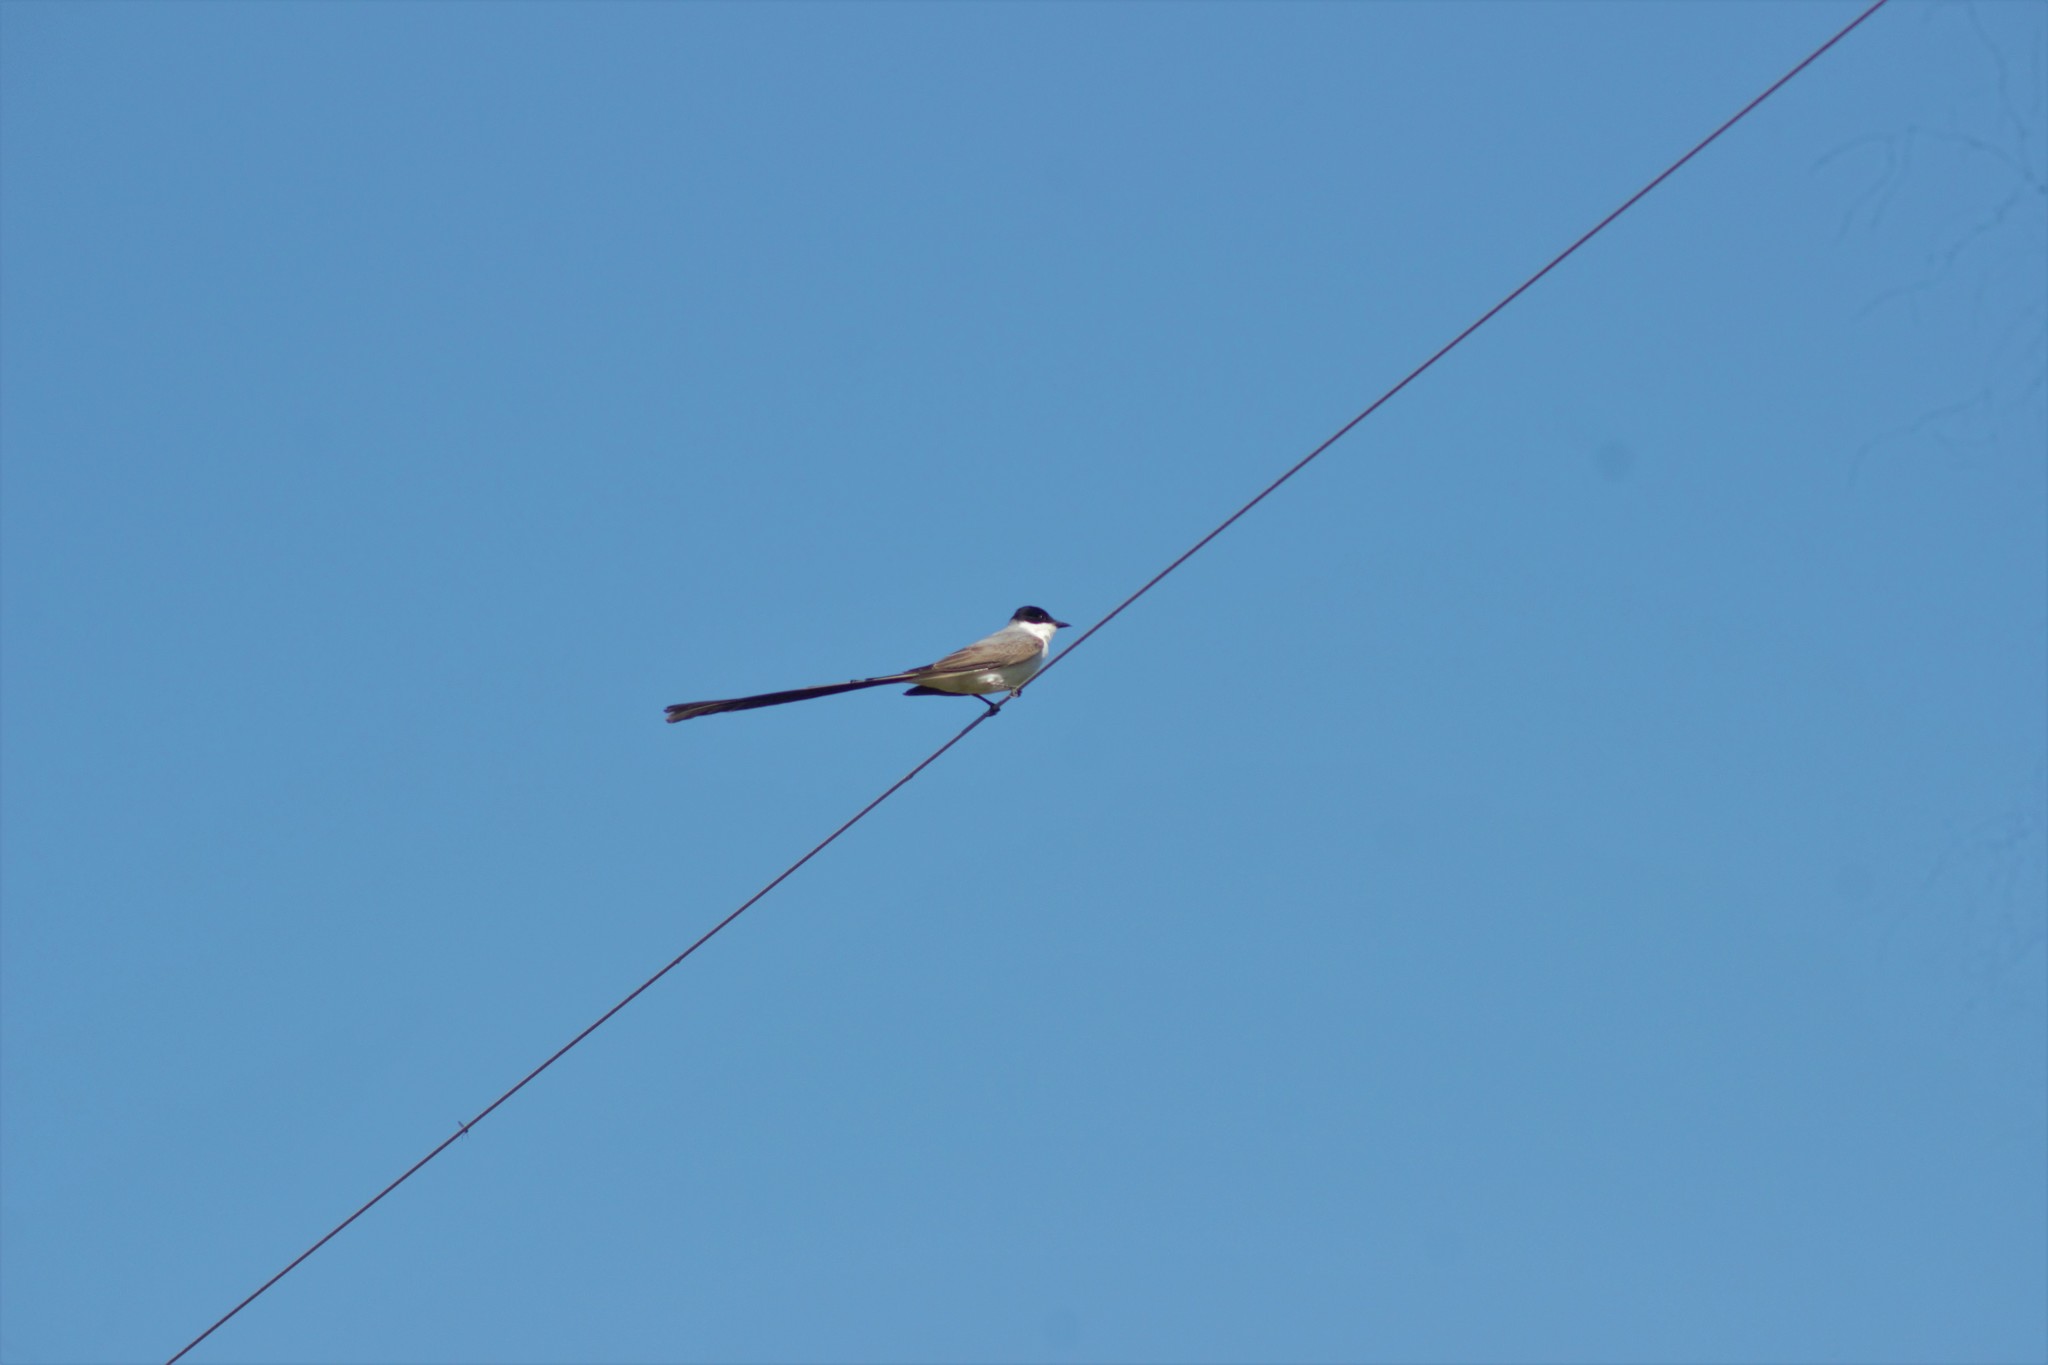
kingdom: Animalia
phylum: Chordata
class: Aves
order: Passeriformes
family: Tyrannidae
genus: Tyrannus
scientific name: Tyrannus savana
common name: Fork-tailed flycatcher
